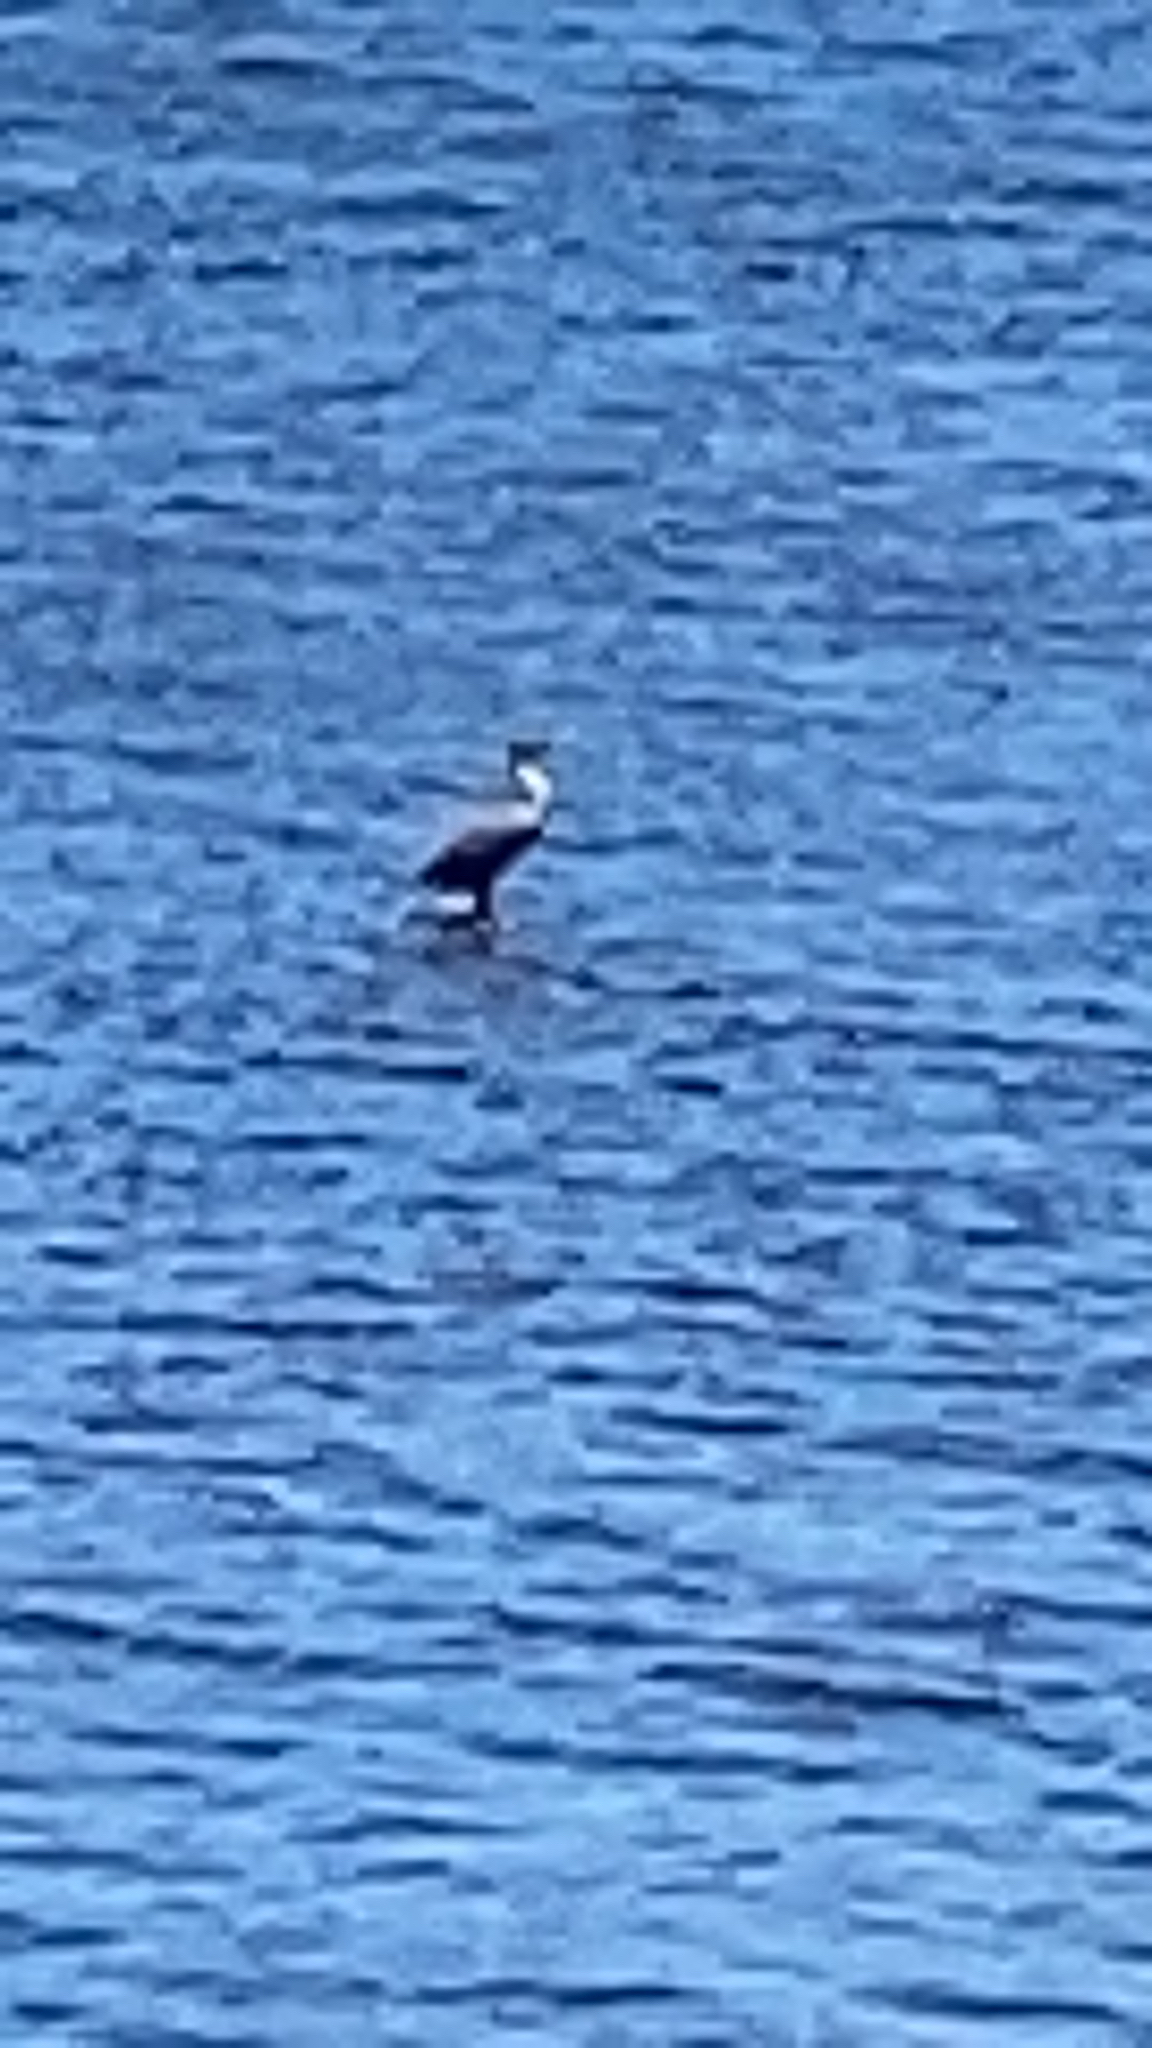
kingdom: Animalia
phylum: Chordata
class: Aves
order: Suliformes
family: Phalacrocoracidae
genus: Phalacrocorax
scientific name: Phalacrocorax auritus
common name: Double-crested cormorant
